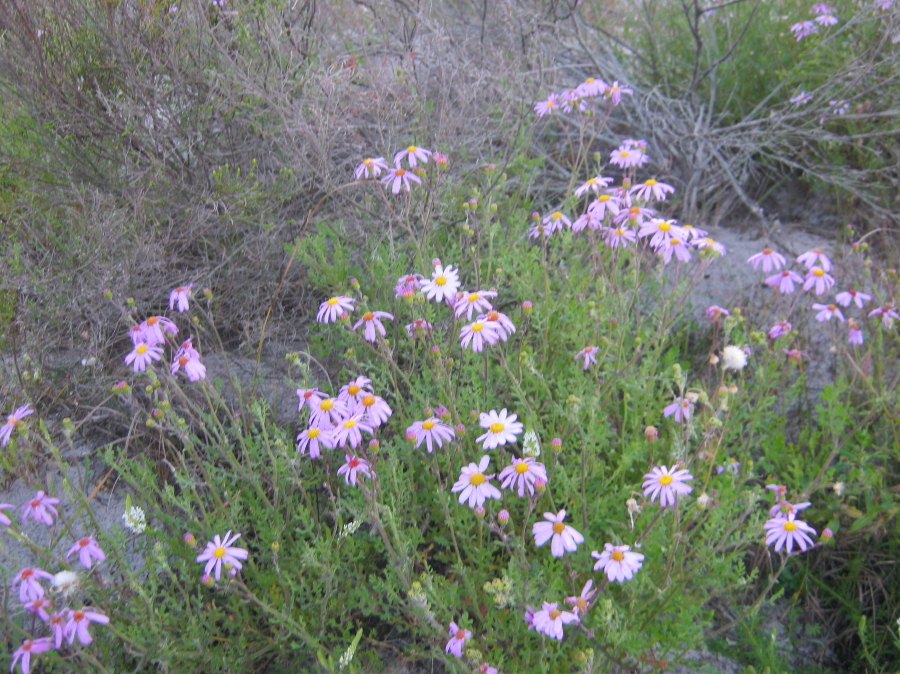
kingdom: Plantae
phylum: Tracheophyta
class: Magnoliopsida
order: Asterales
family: Asteraceae
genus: Senecio
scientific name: Senecio elegans
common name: Purple groundsel
